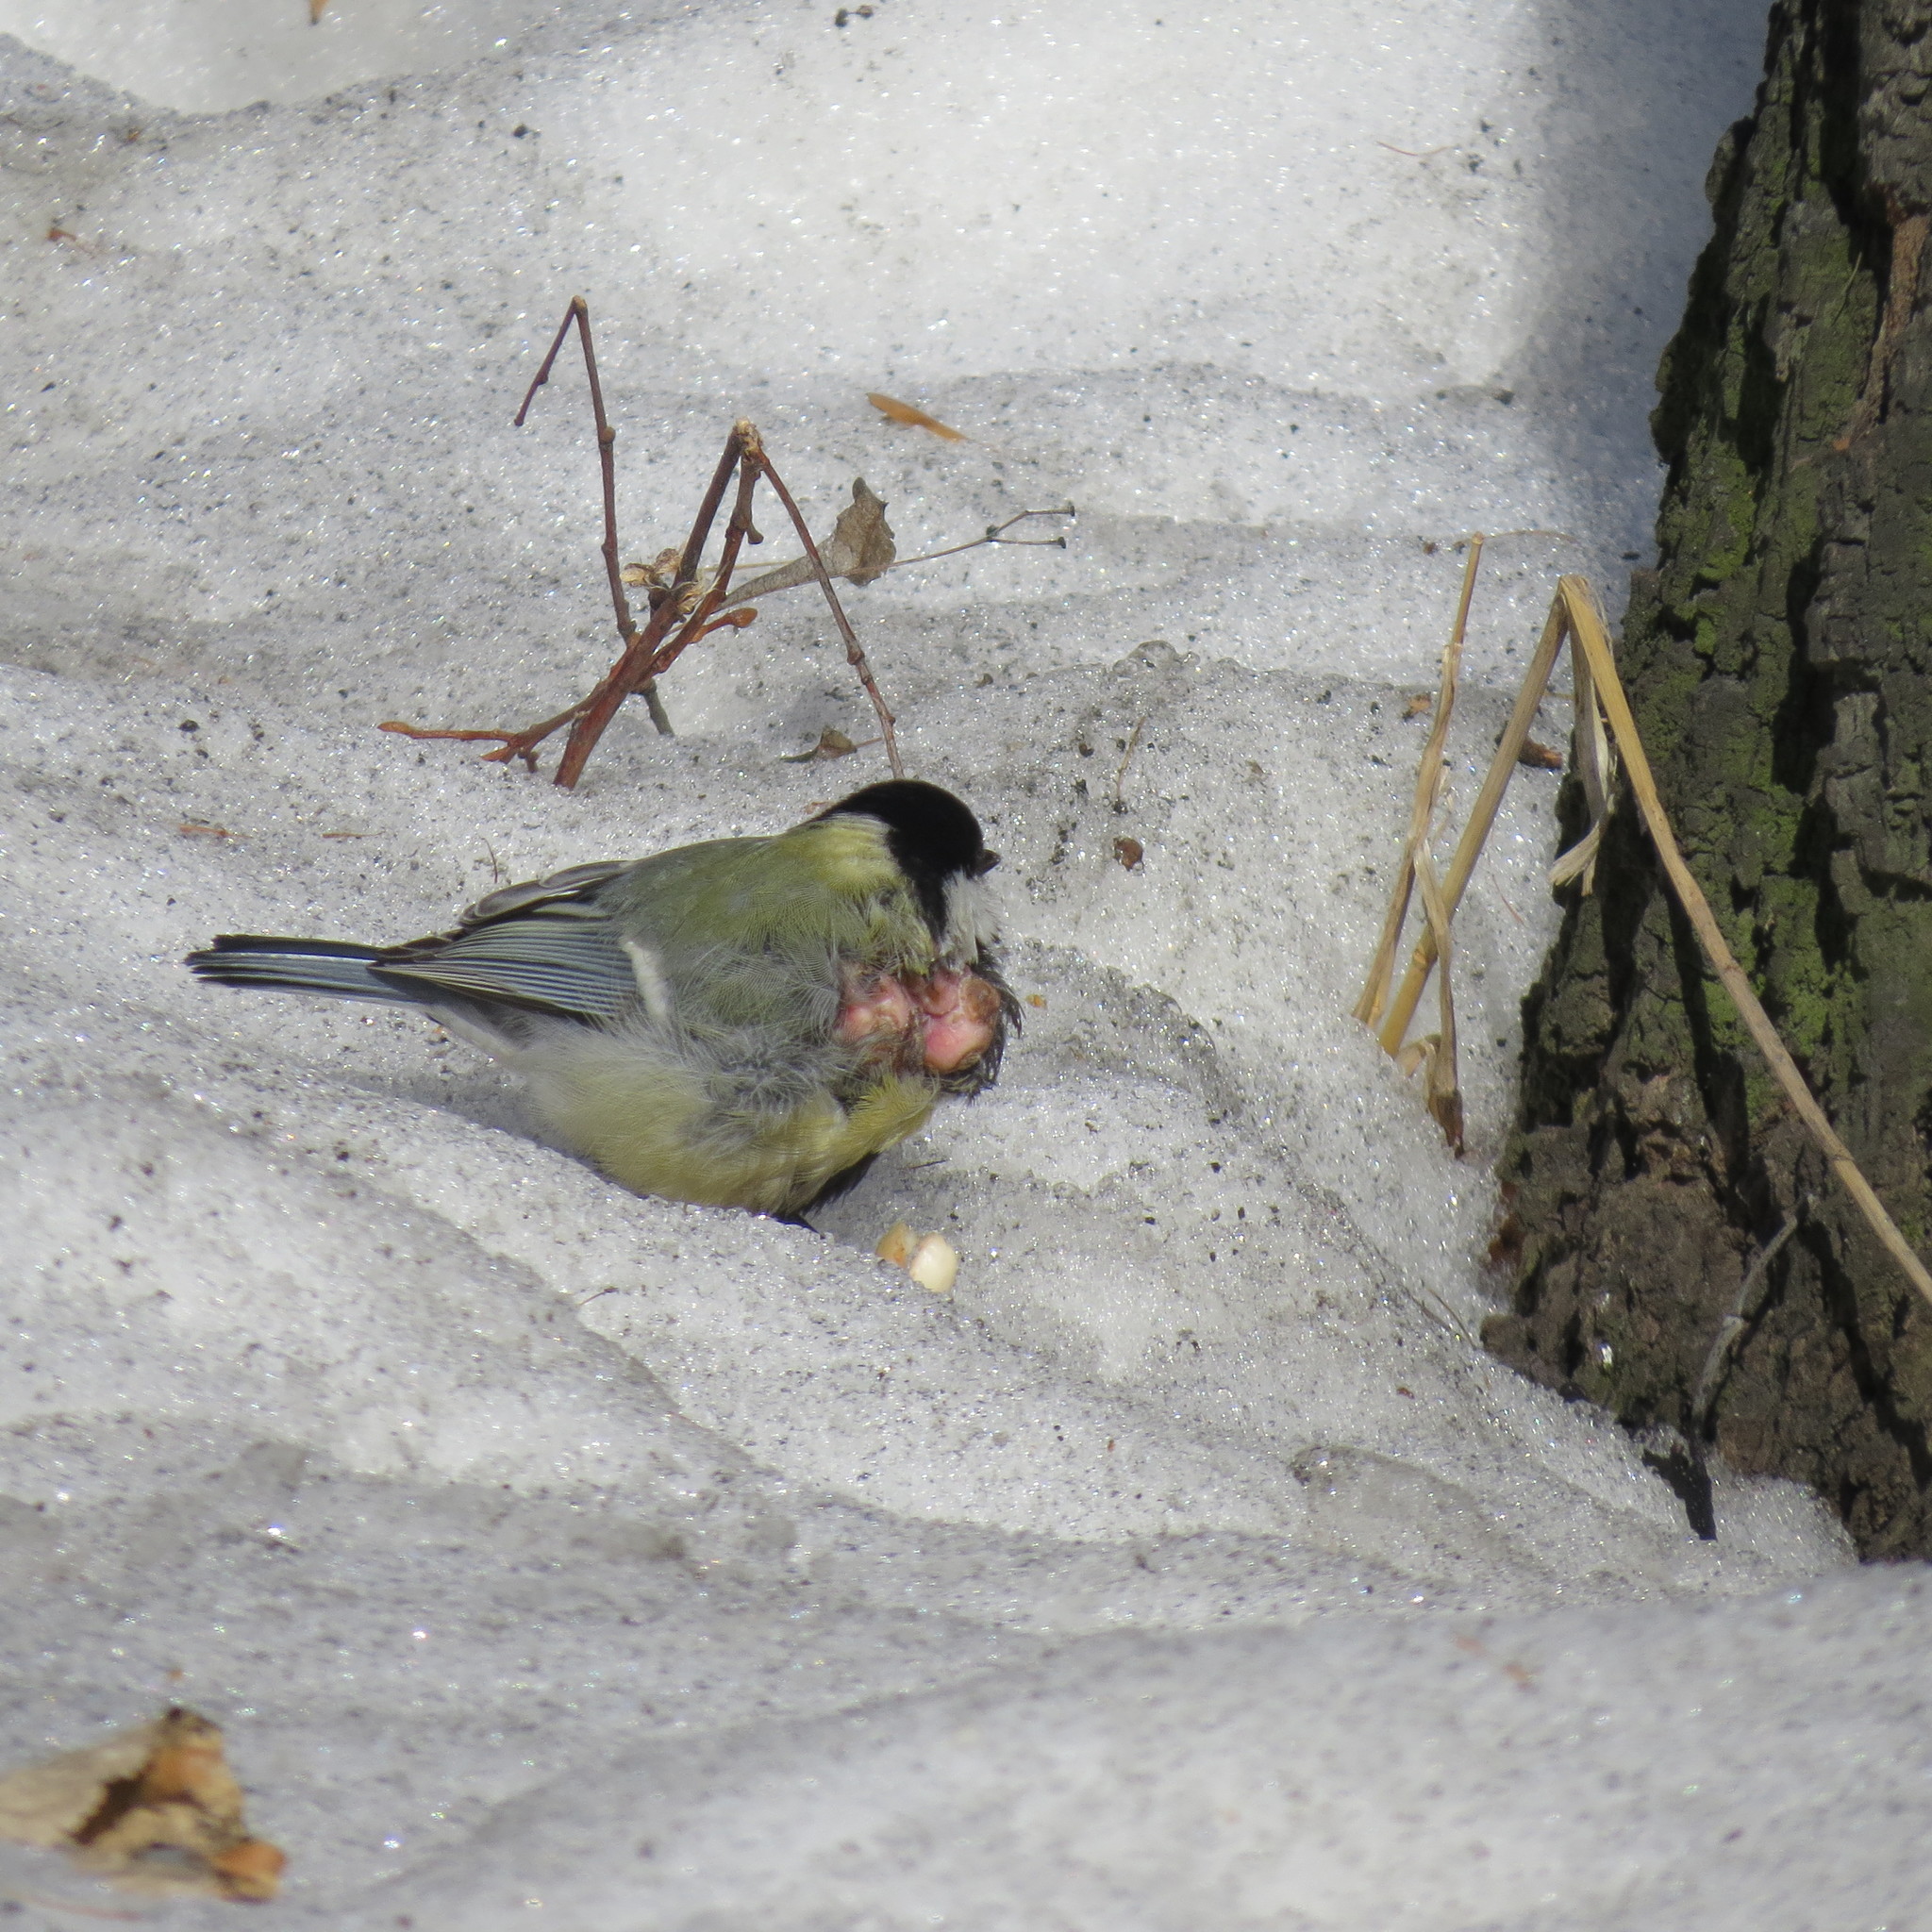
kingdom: Animalia
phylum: Chordata
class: Aves
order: Passeriformes
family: Paridae
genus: Parus
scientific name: Parus major
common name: Great tit
